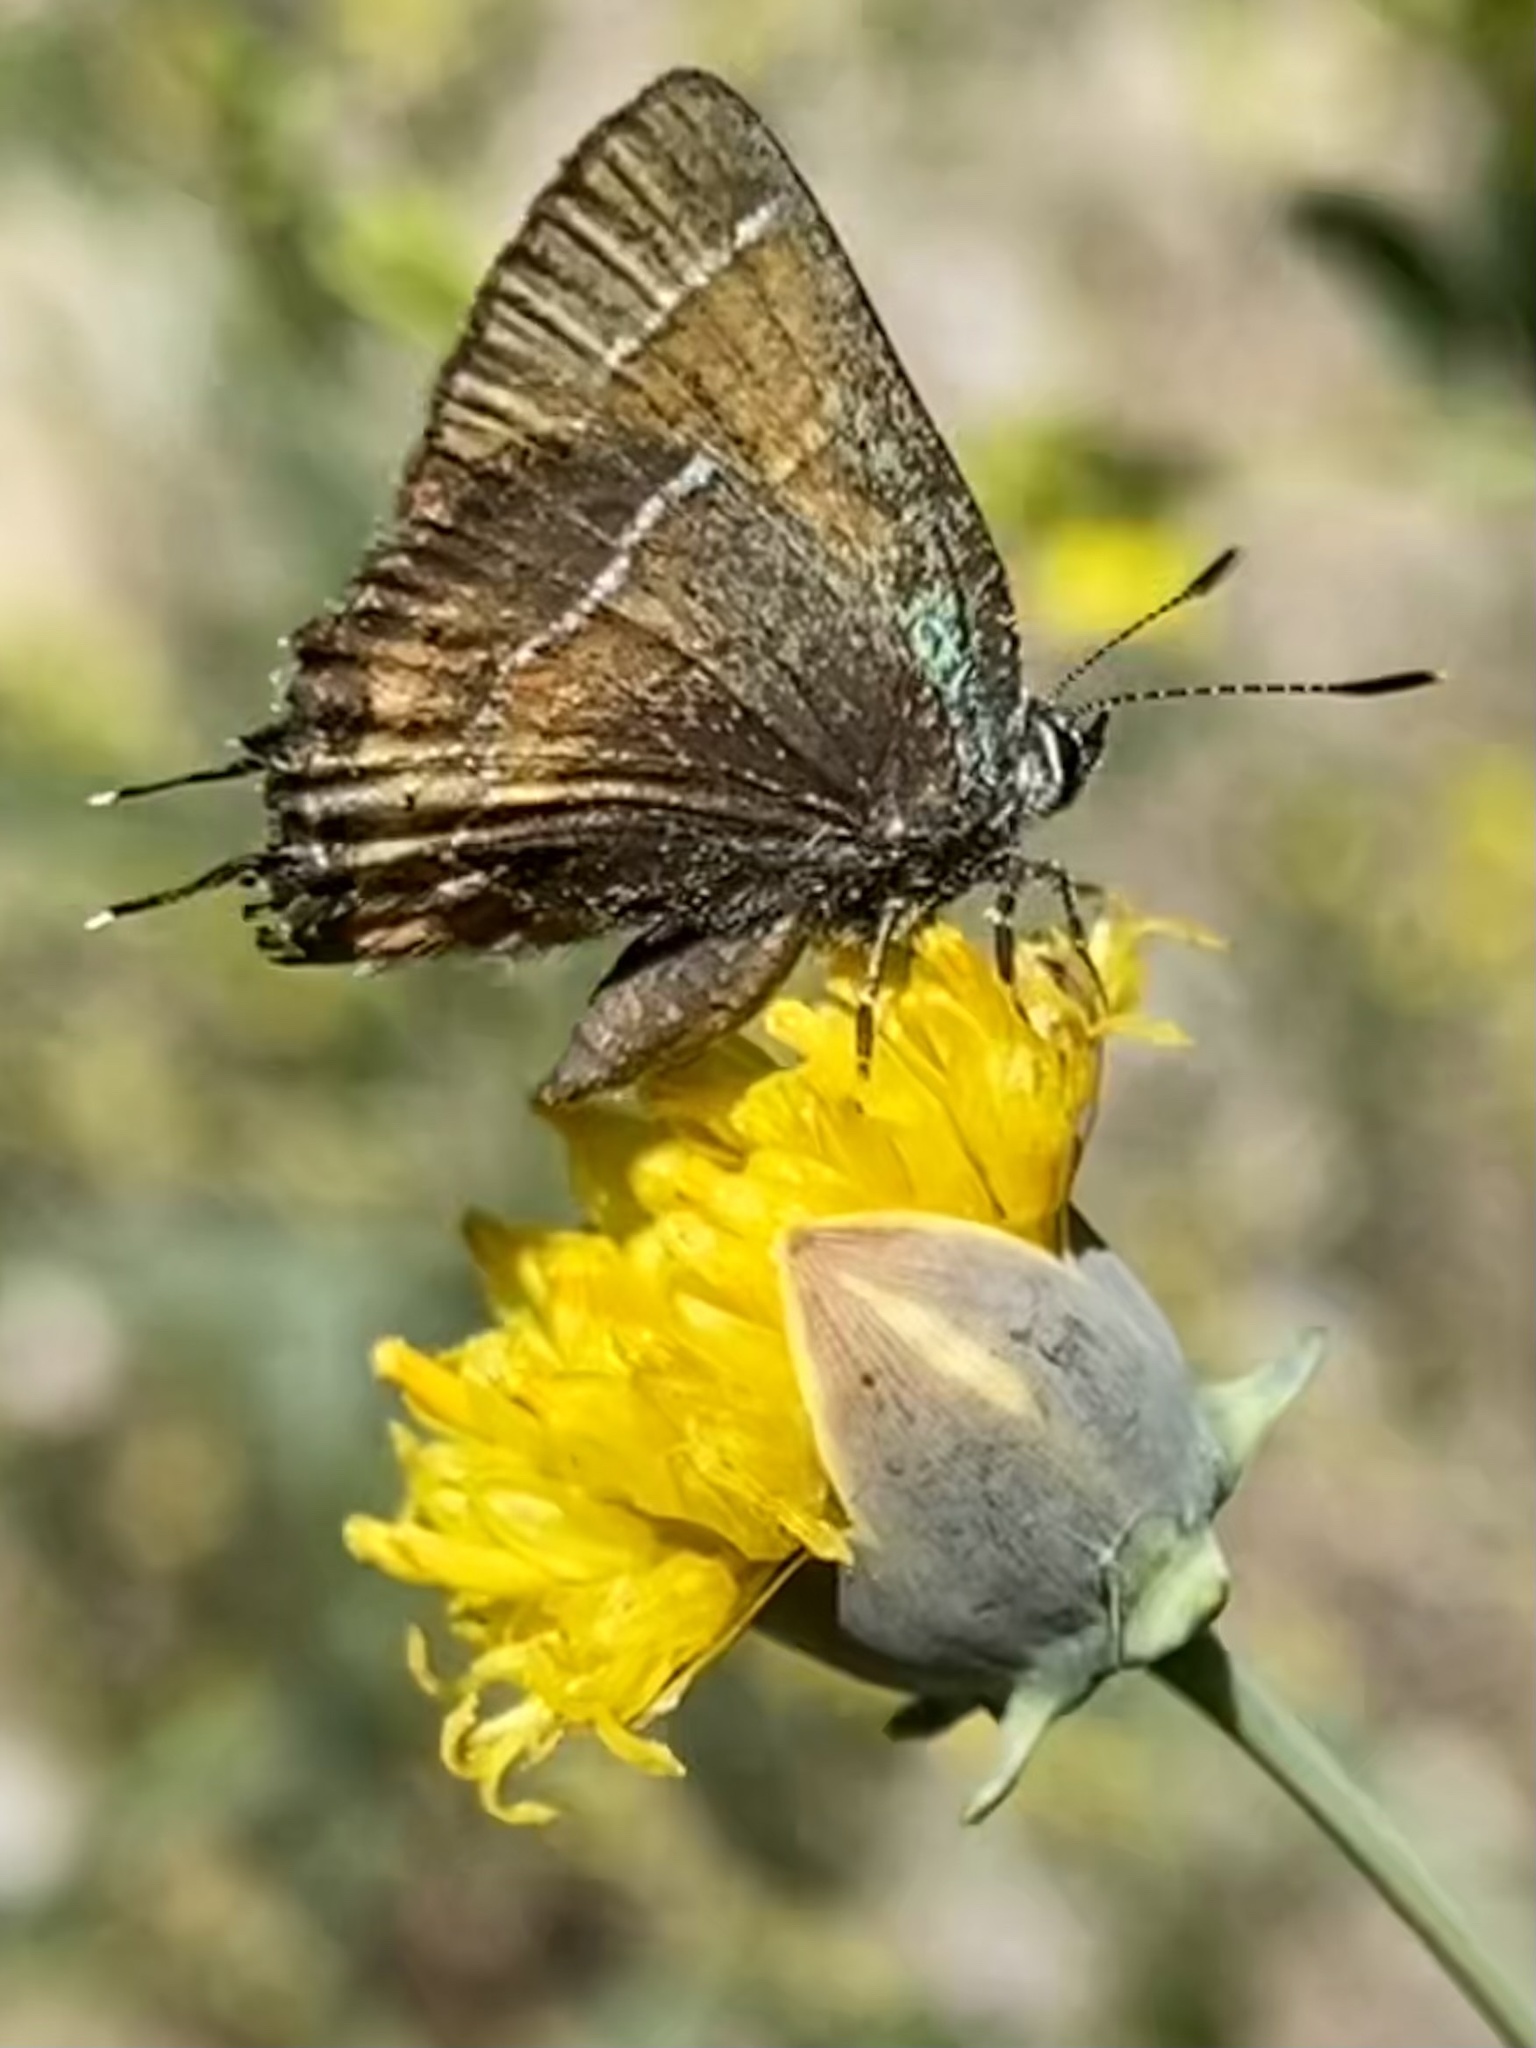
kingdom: Animalia
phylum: Arthropoda
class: Insecta
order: Lepidoptera
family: Lycaenidae
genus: Mitoura
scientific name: Mitoura gryneus
